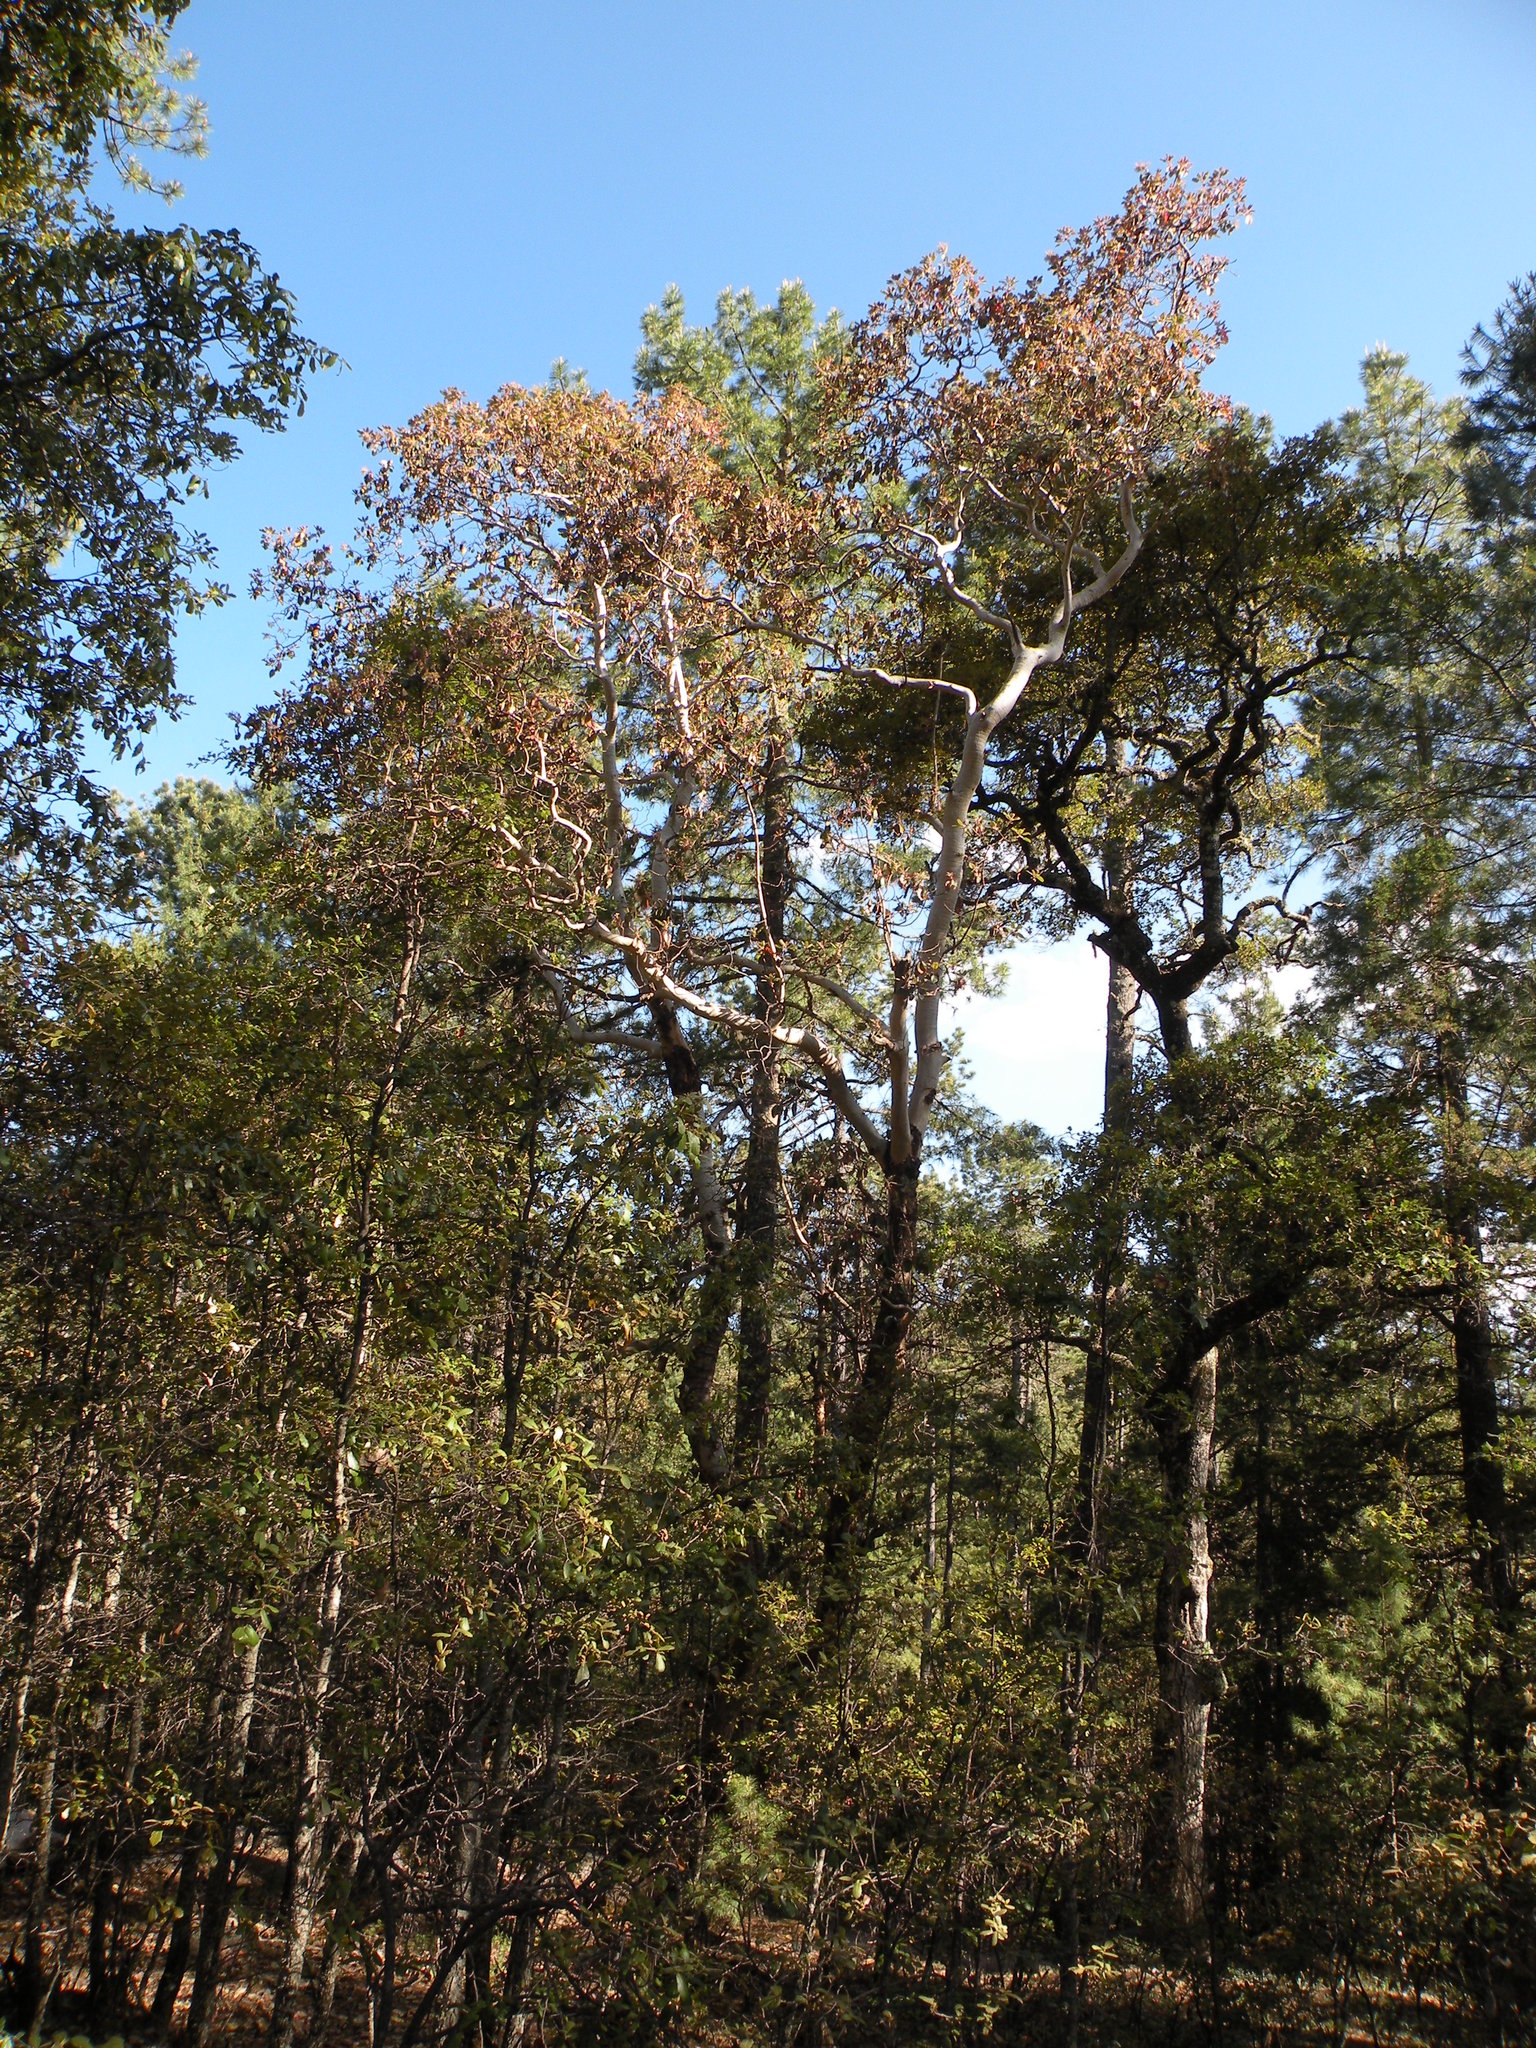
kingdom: Plantae
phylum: Tracheophyta
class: Magnoliopsida
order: Ericales
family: Ericaceae
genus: Arbutus
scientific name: Arbutus bicolor
